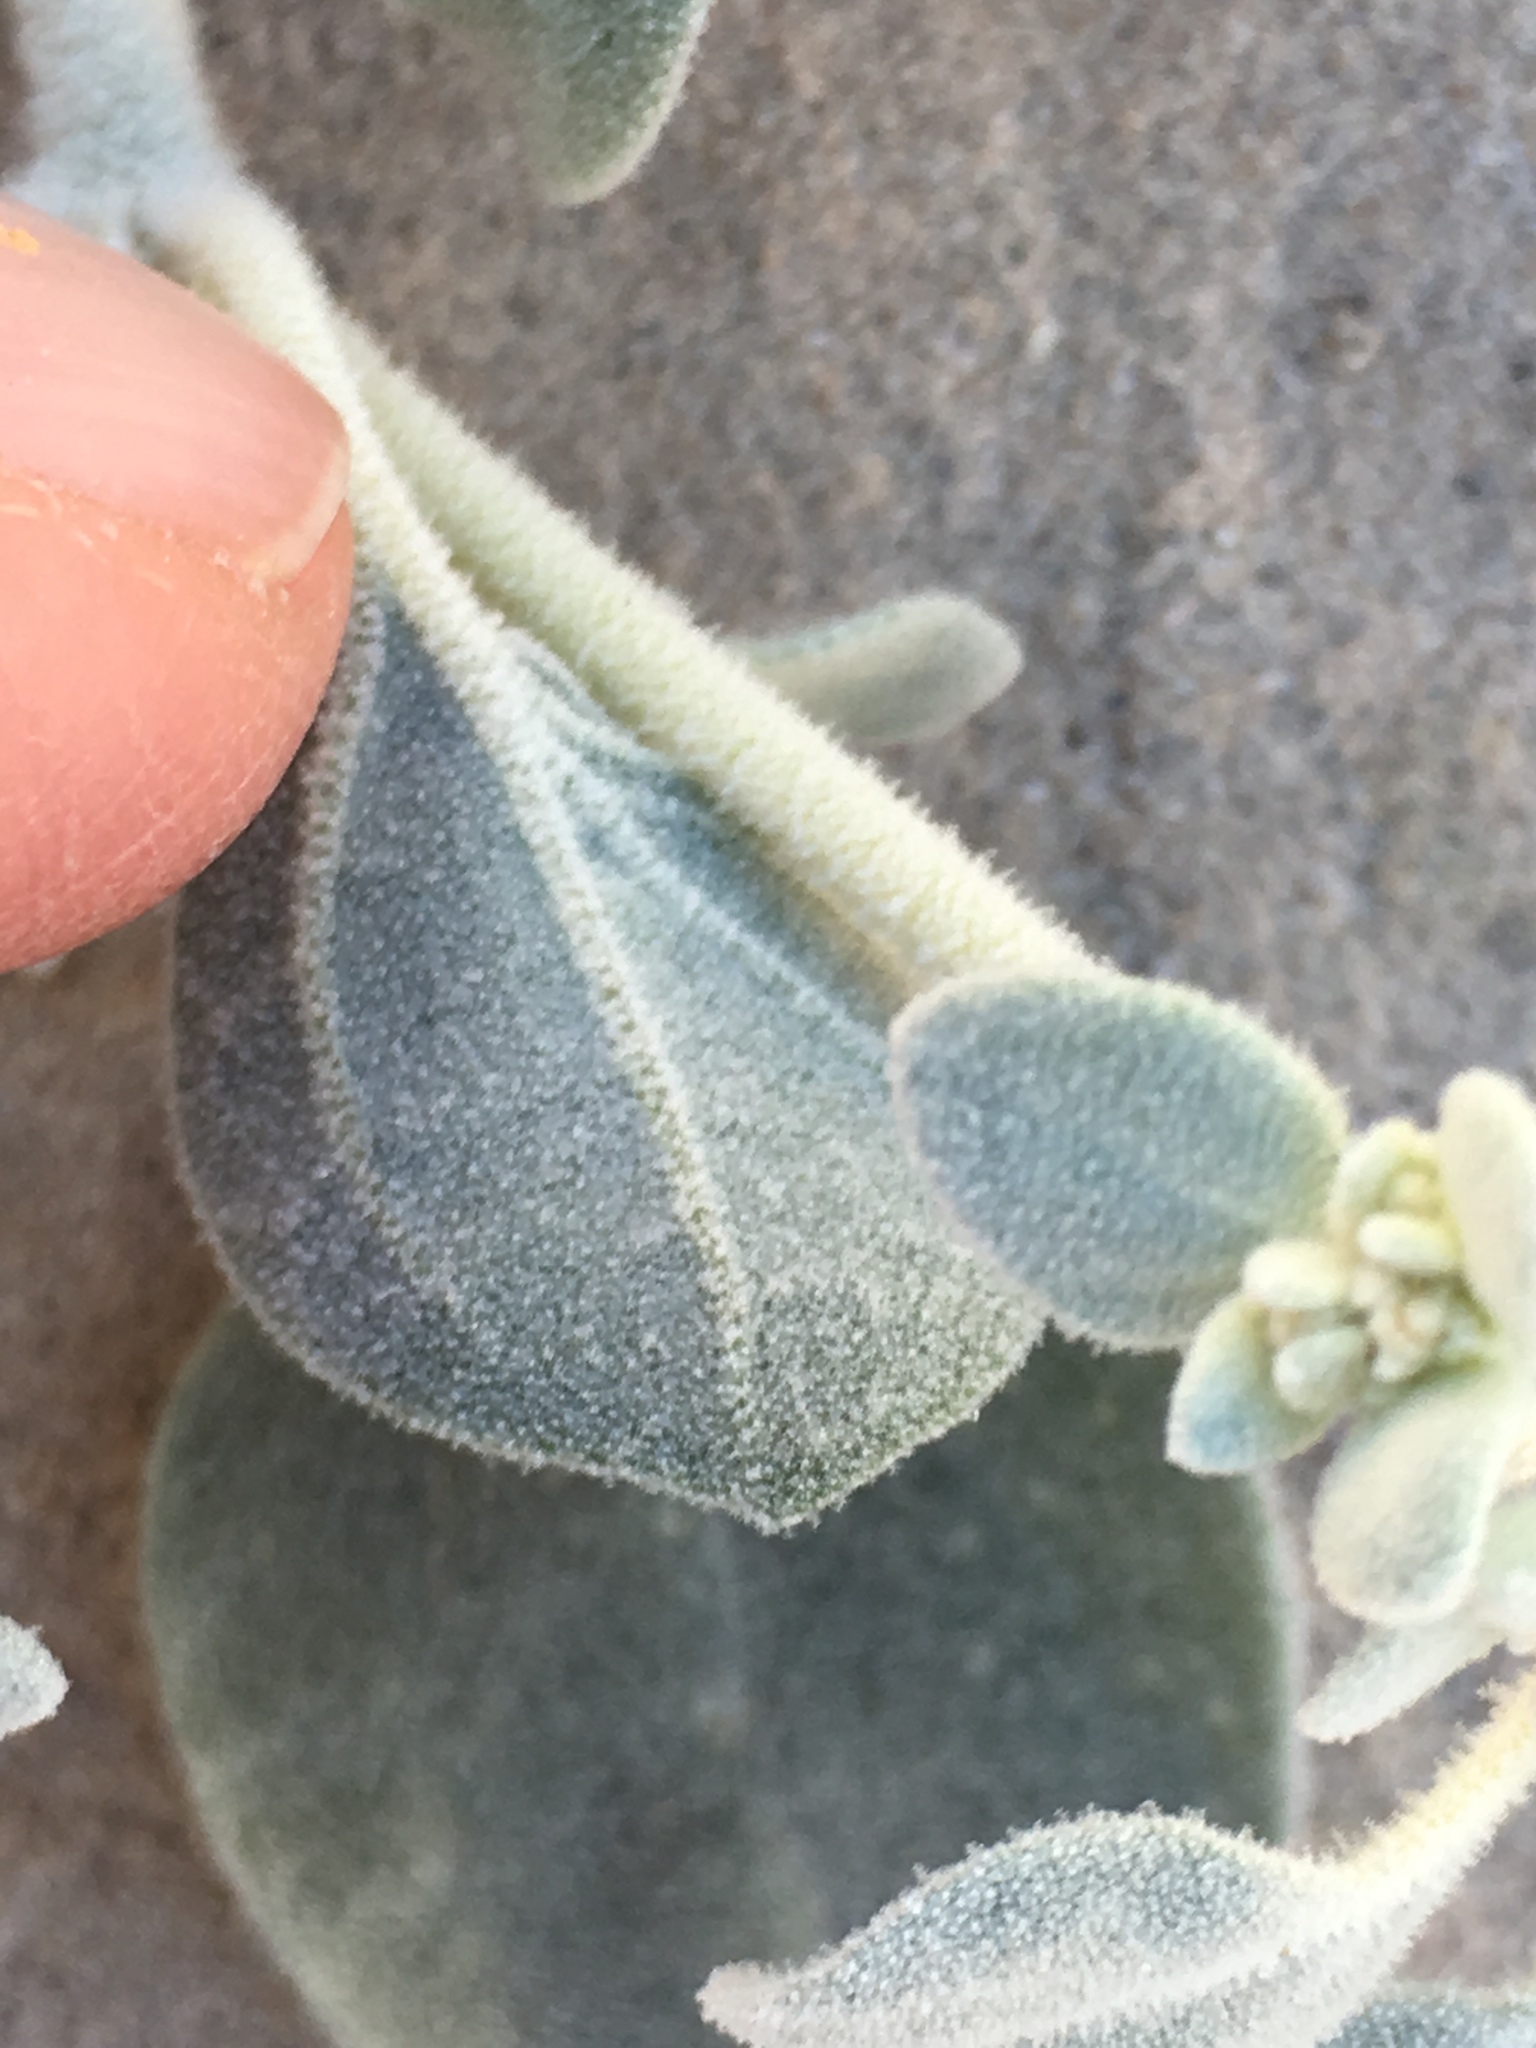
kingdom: Plantae
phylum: Tracheophyta
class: Magnoliopsida
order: Caryophyllales
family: Amaranthaceae
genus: Tidestromia
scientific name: Tidestromia suffruticosa
